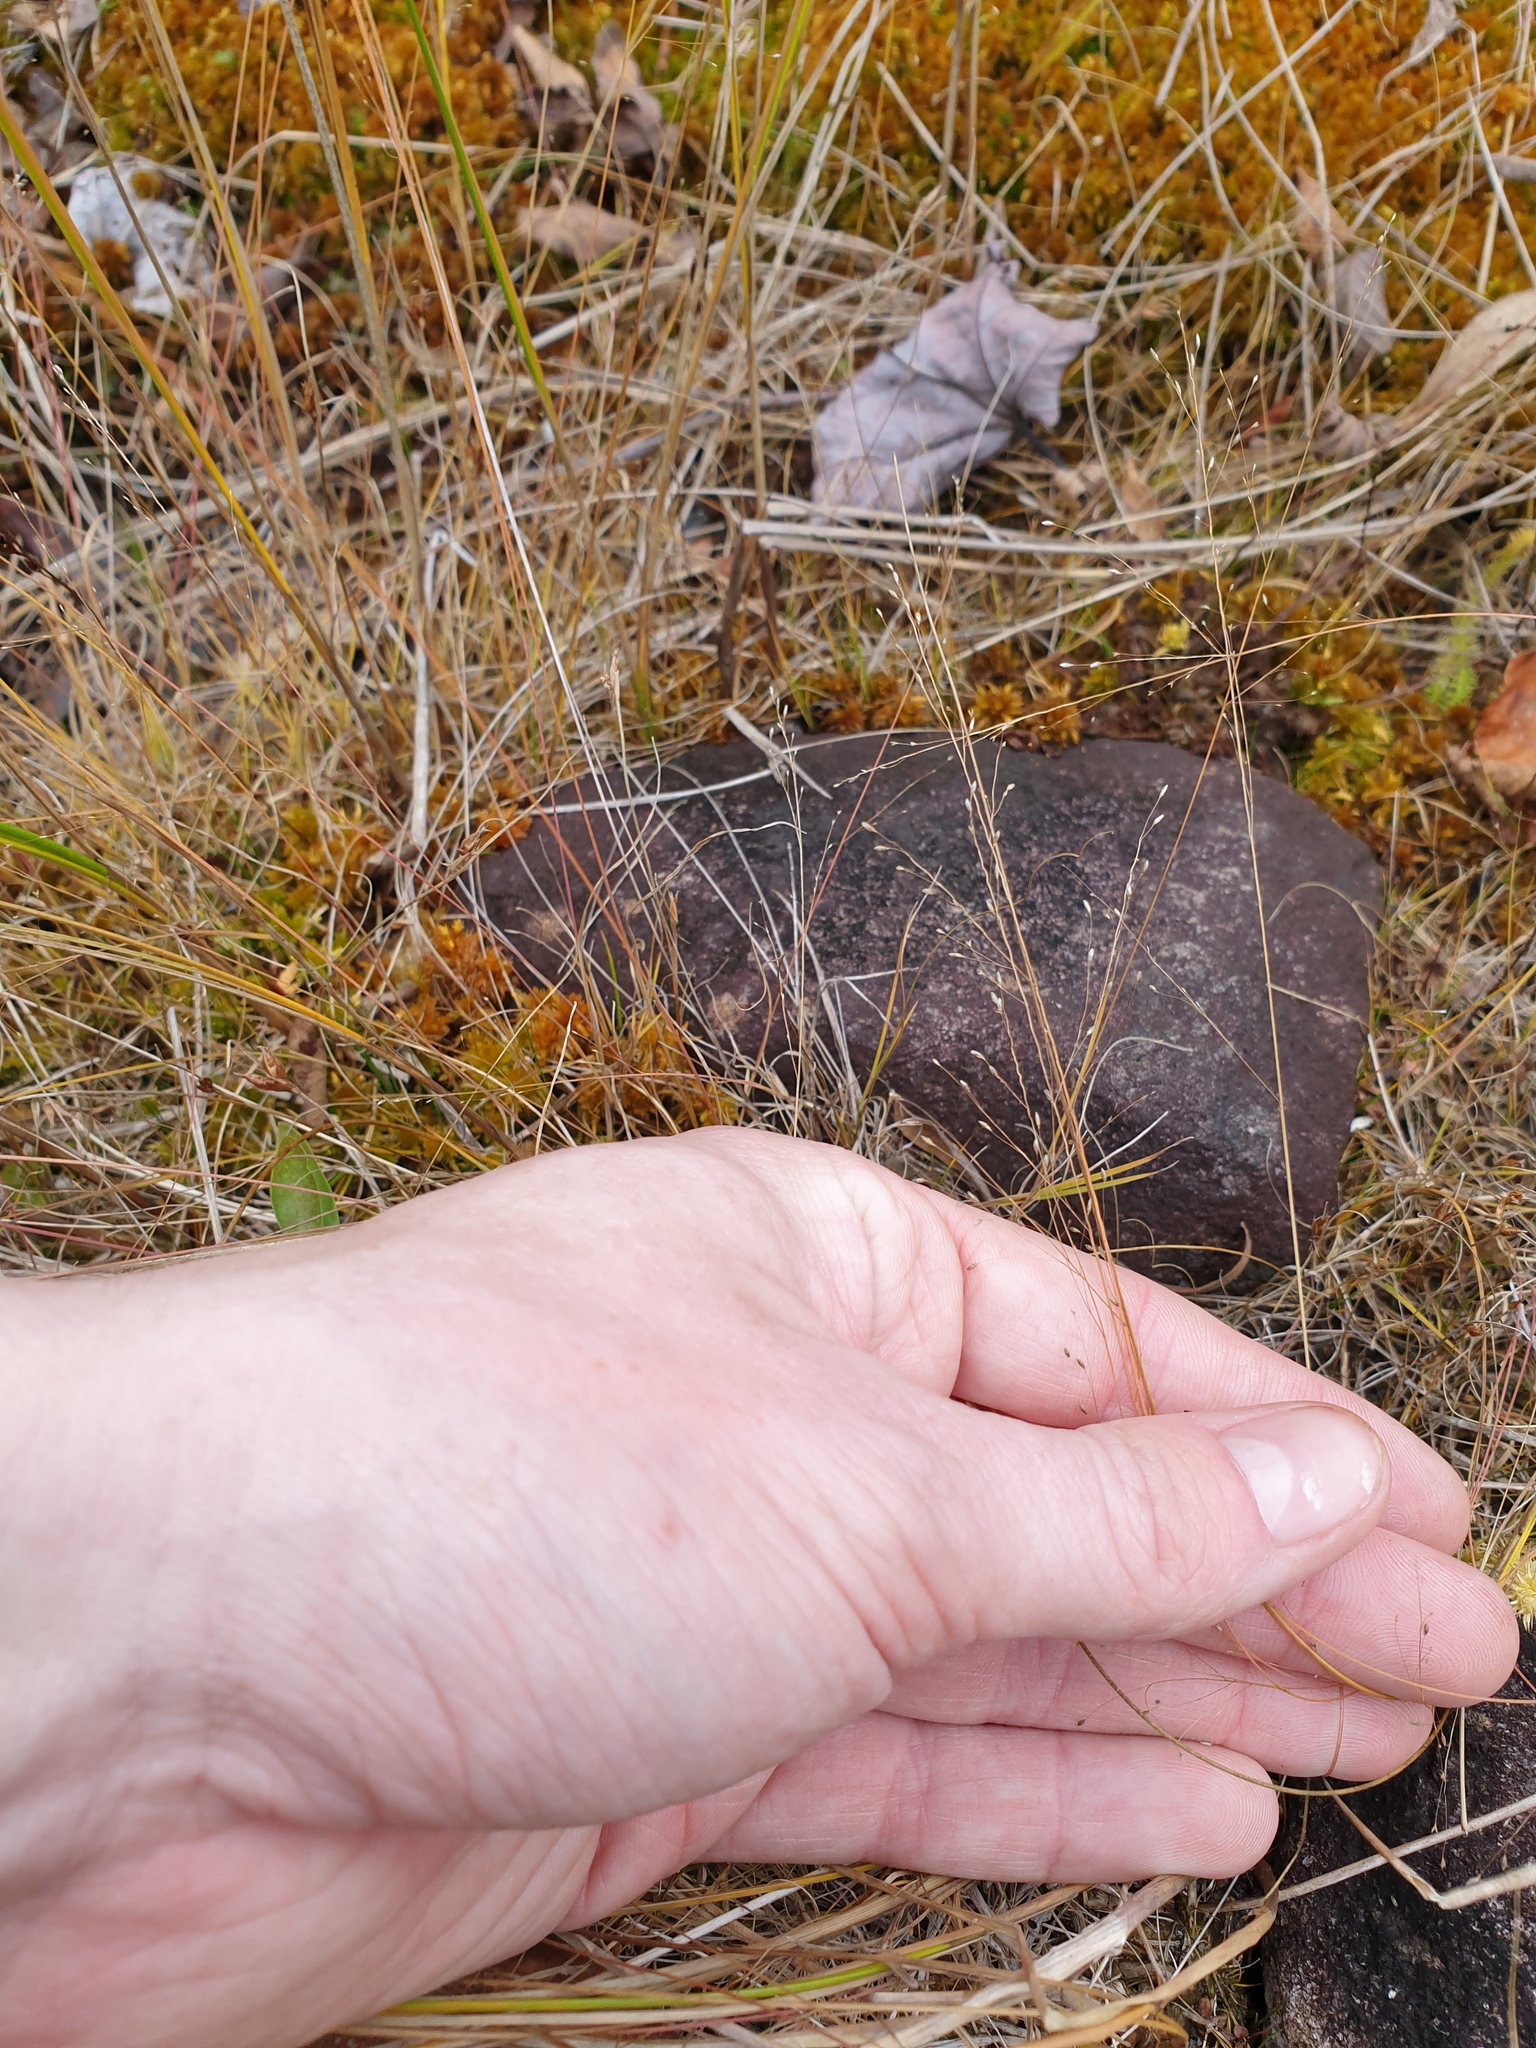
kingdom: Plantae
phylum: Tracheophyta
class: Liliopsida
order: Poales
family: Poaceae
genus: Muhlenbergia
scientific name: Muhlenbergia uniflora
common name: Bog muhly
